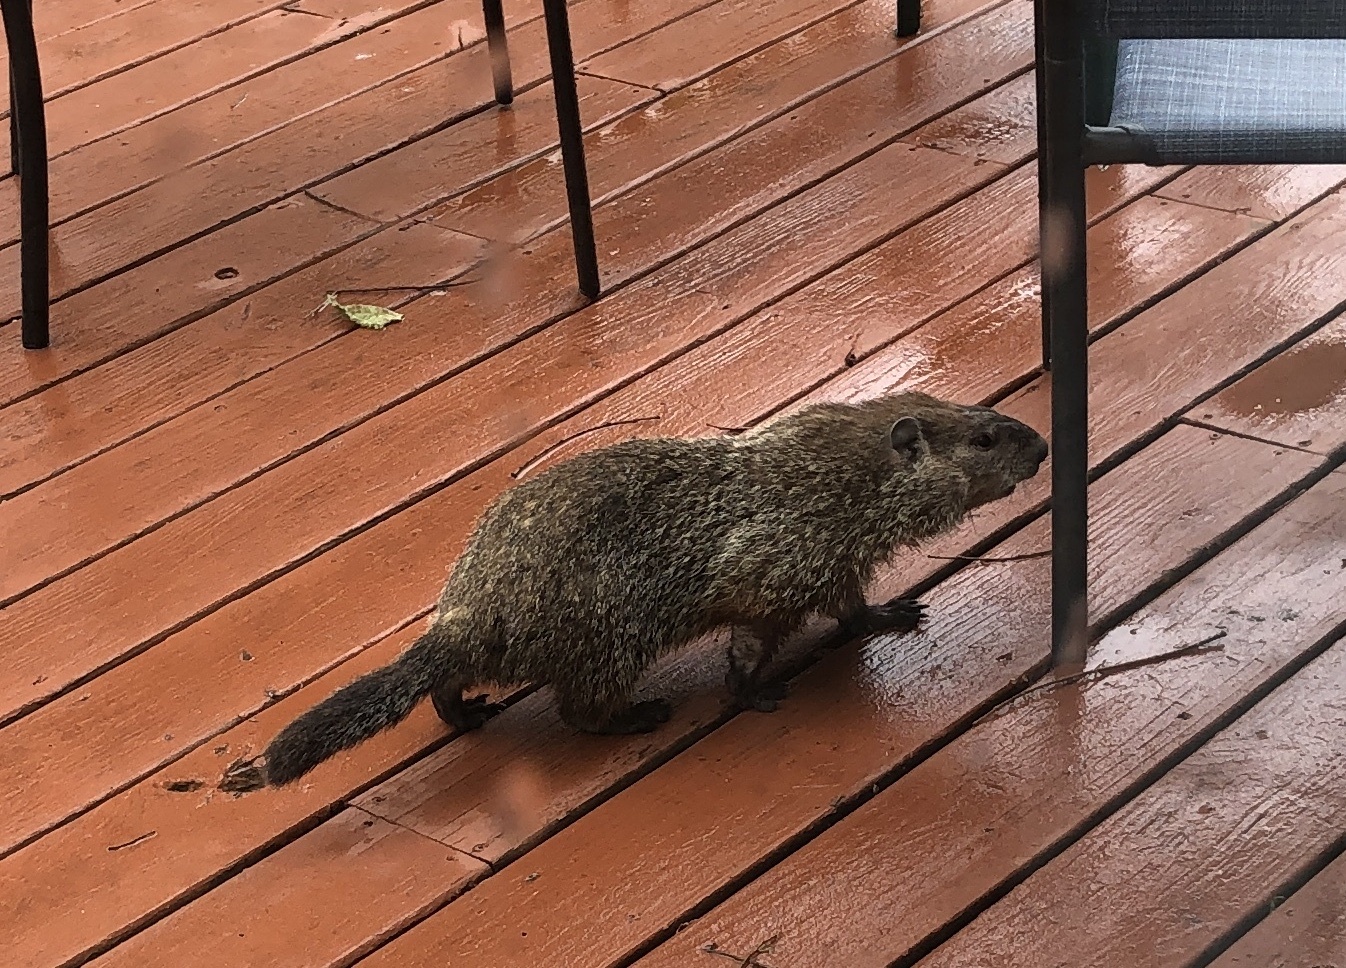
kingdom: Animalia
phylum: Chordata
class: Mammalia
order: Rodentia
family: Sciuridae
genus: Marmota
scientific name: Marmota monax
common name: Groundhog
